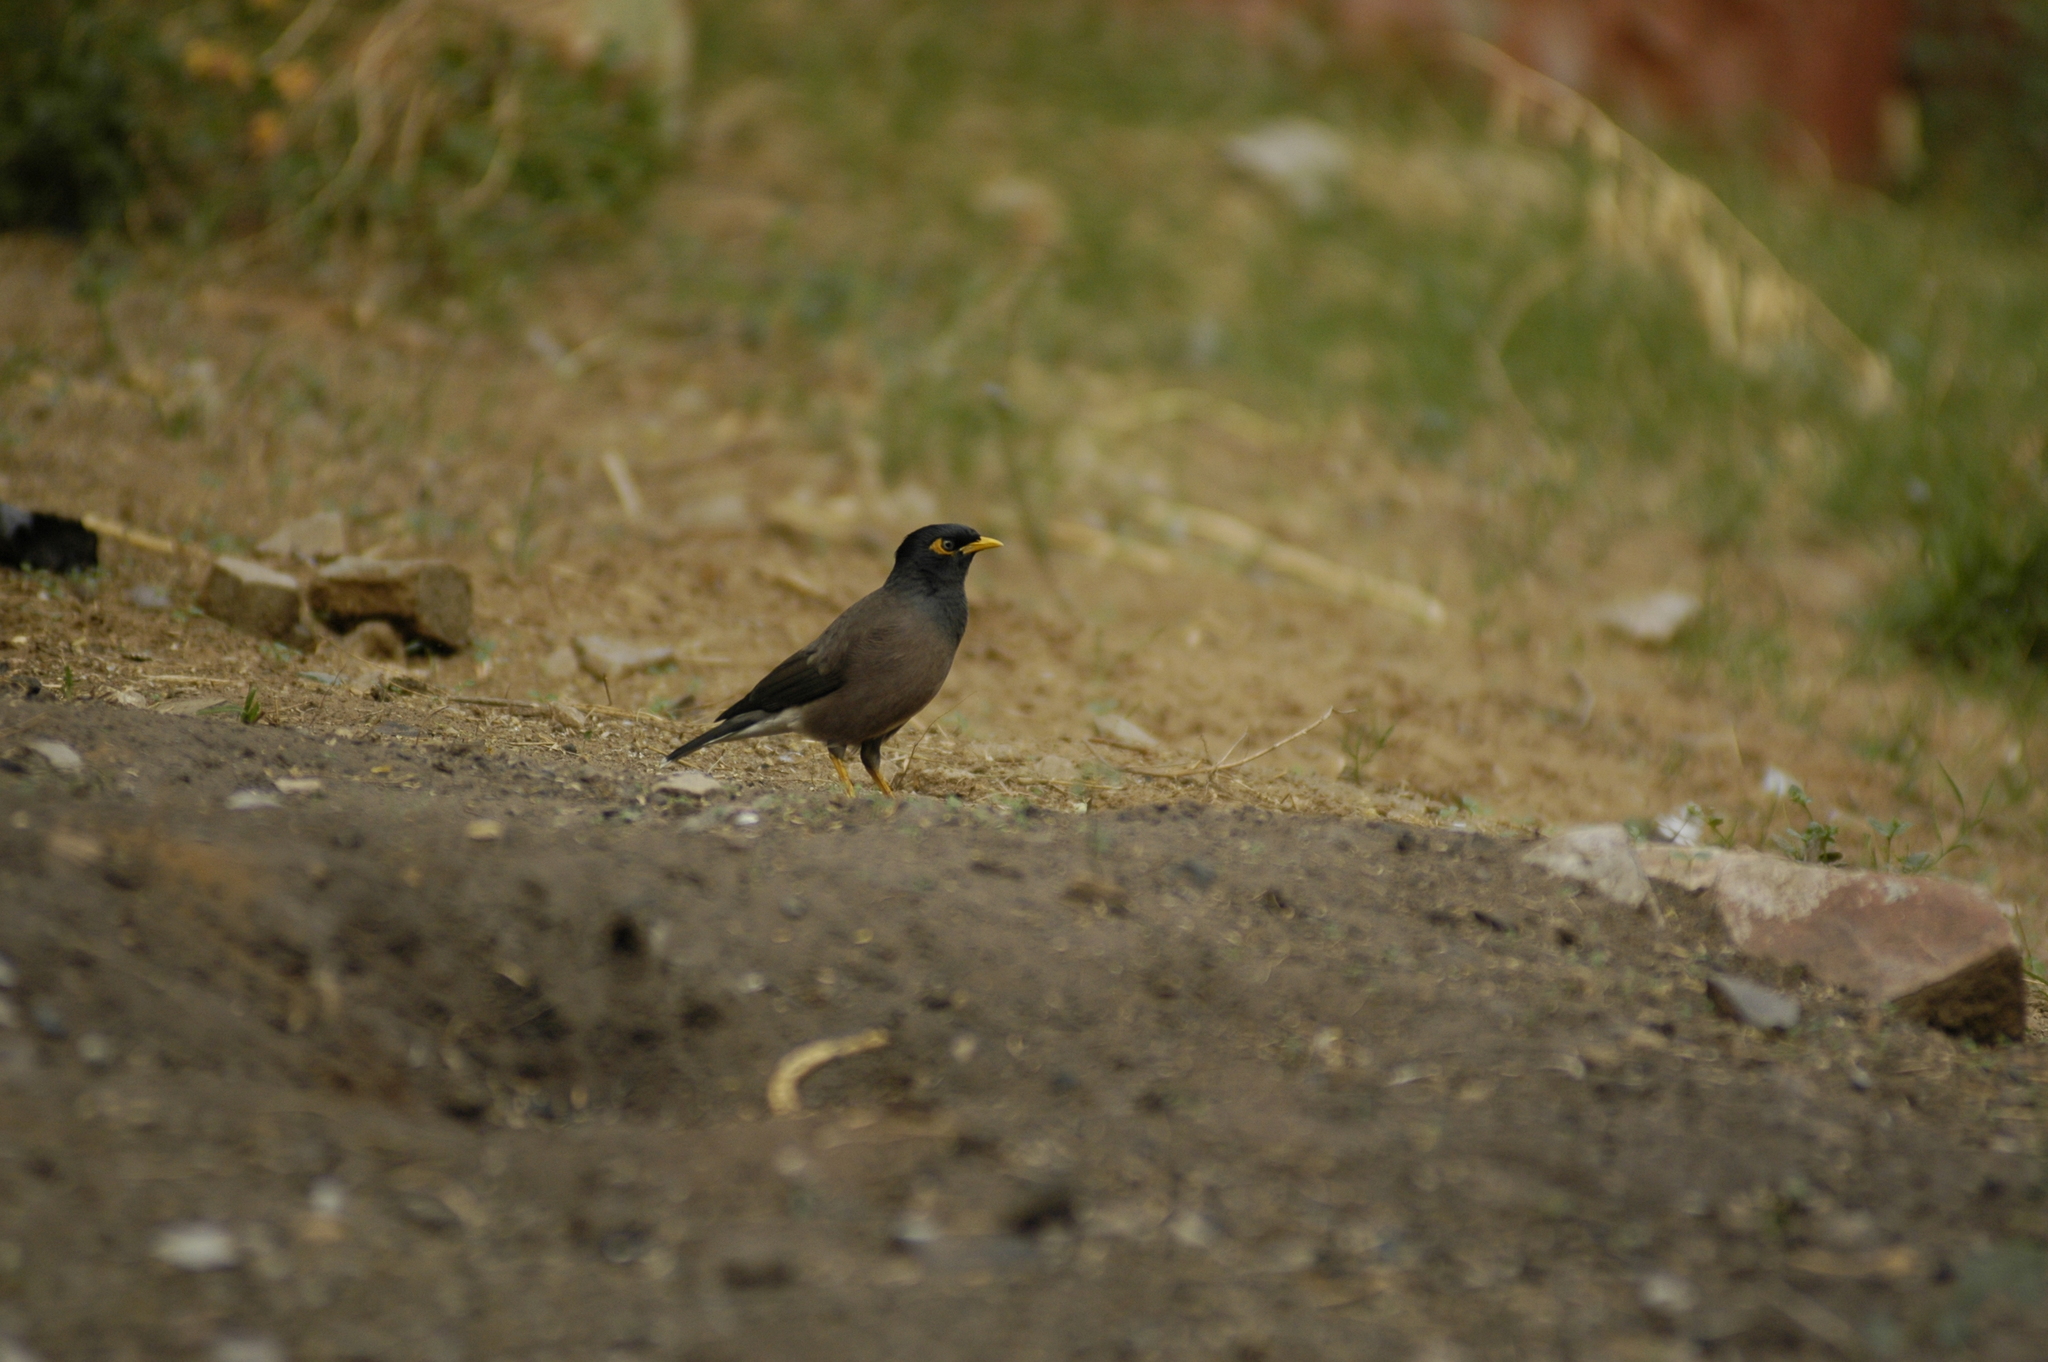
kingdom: Animalia
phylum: Chordata
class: Aves
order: Passeriformes
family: Sturnidae
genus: Acridotheres
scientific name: Acridotheres tristis
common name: Common myna
